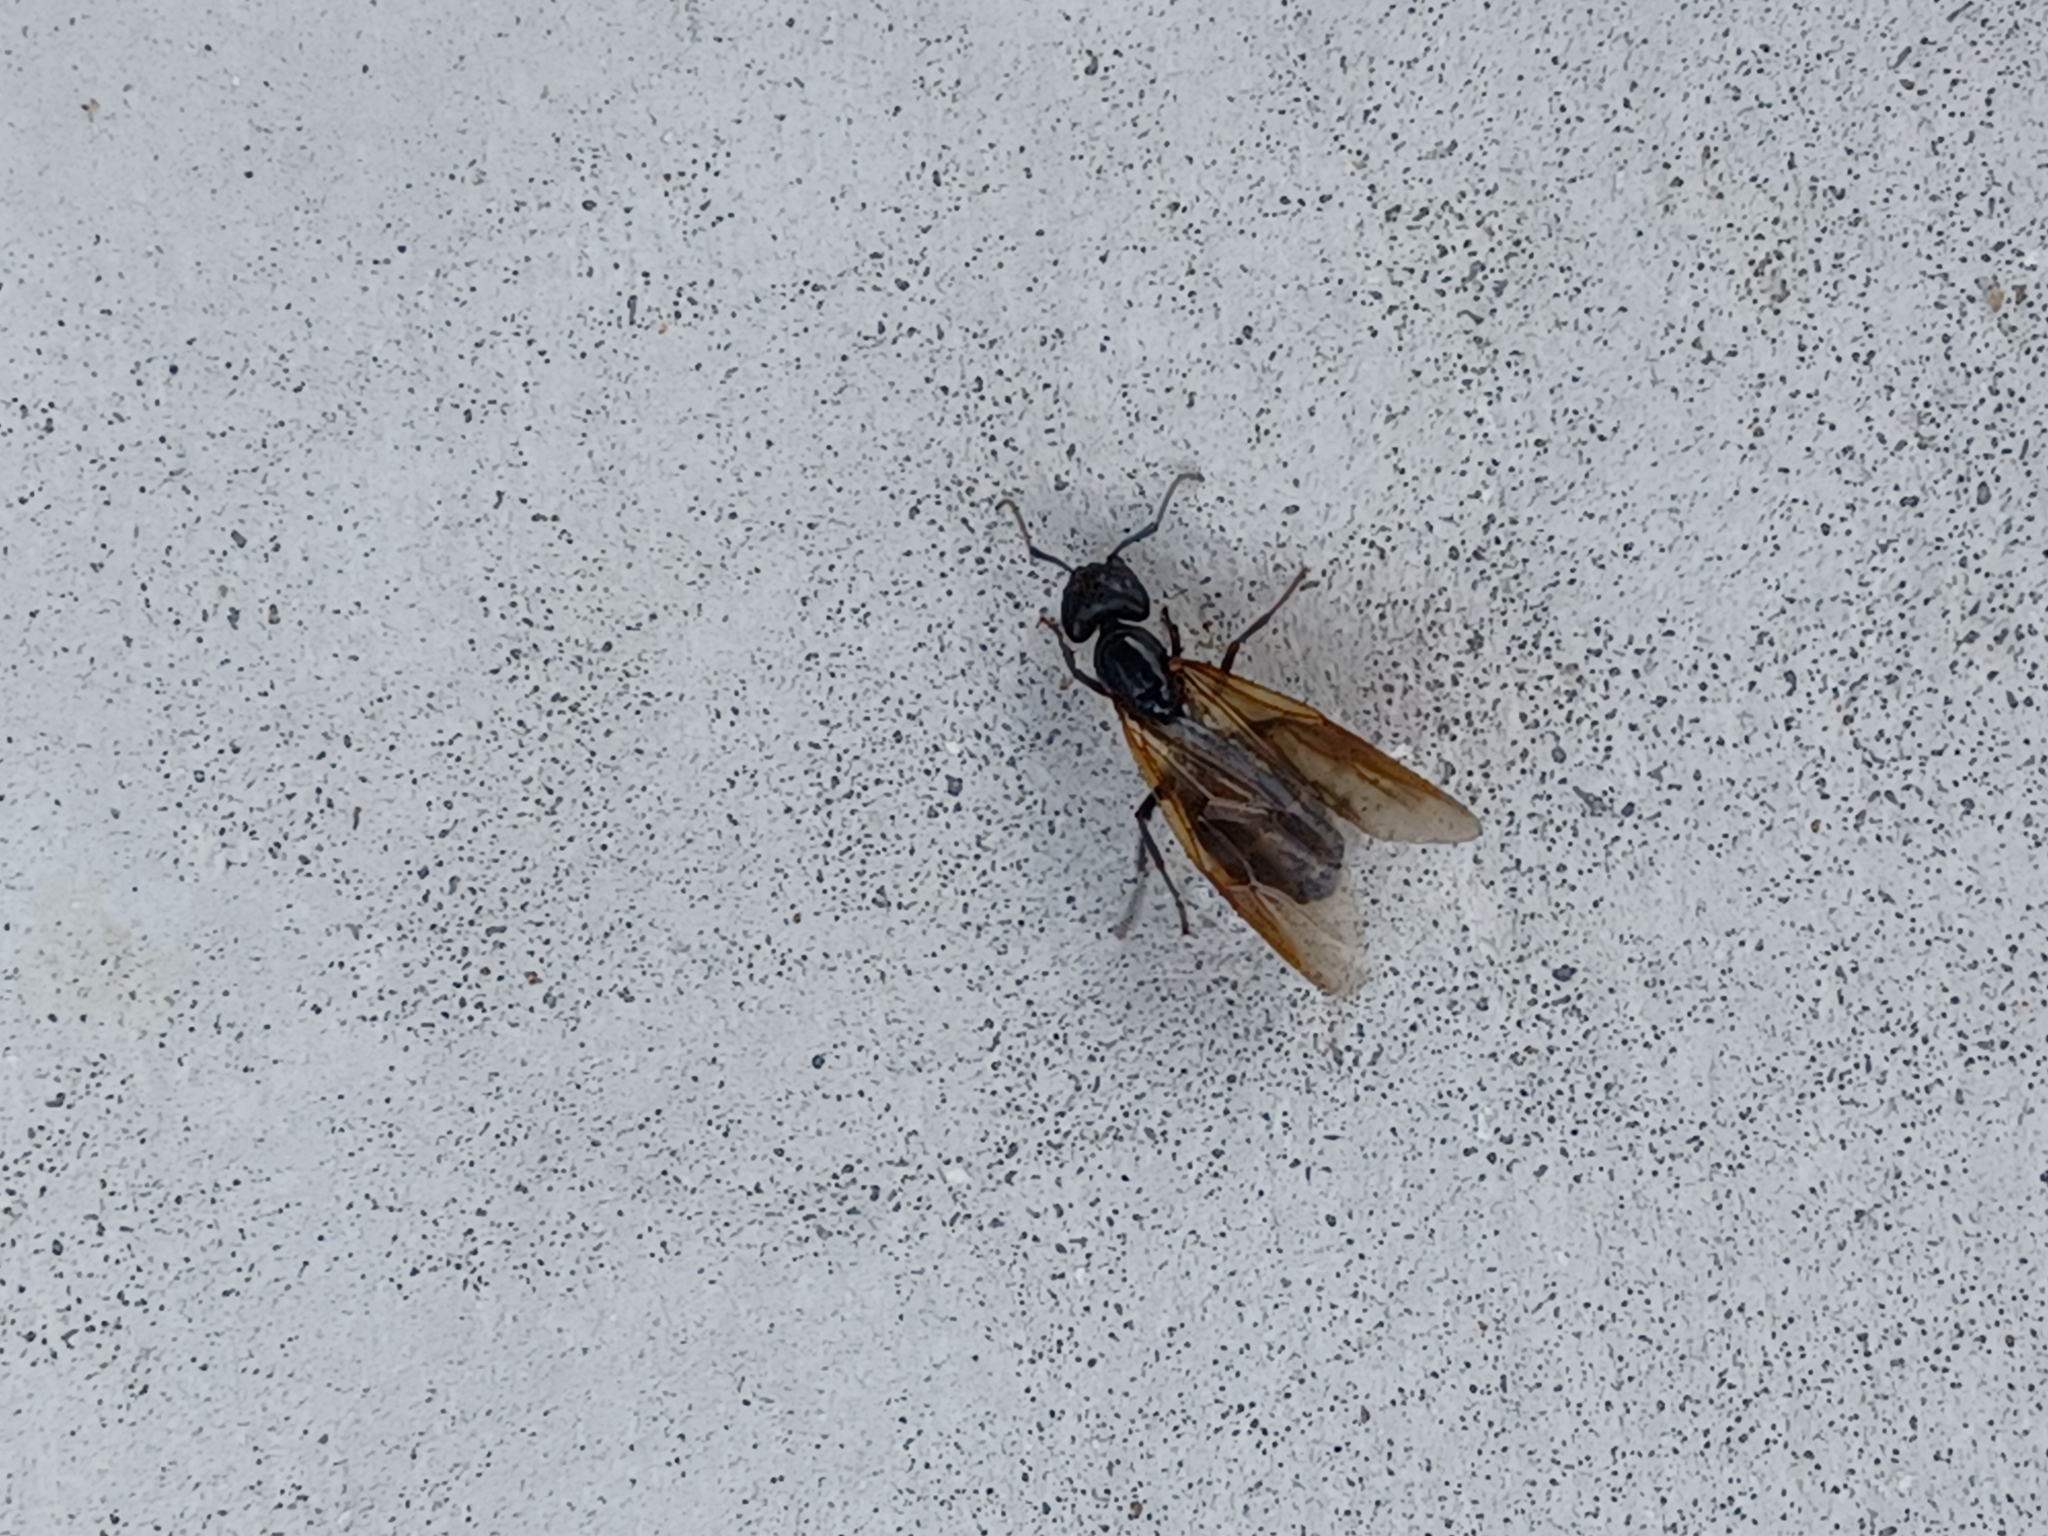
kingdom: Animalia
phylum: Arthropoda
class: Insecta
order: Hymenoptera
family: Formicidae
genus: Camponotus
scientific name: Camponotus chromaiodes
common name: Red carpenter ant
